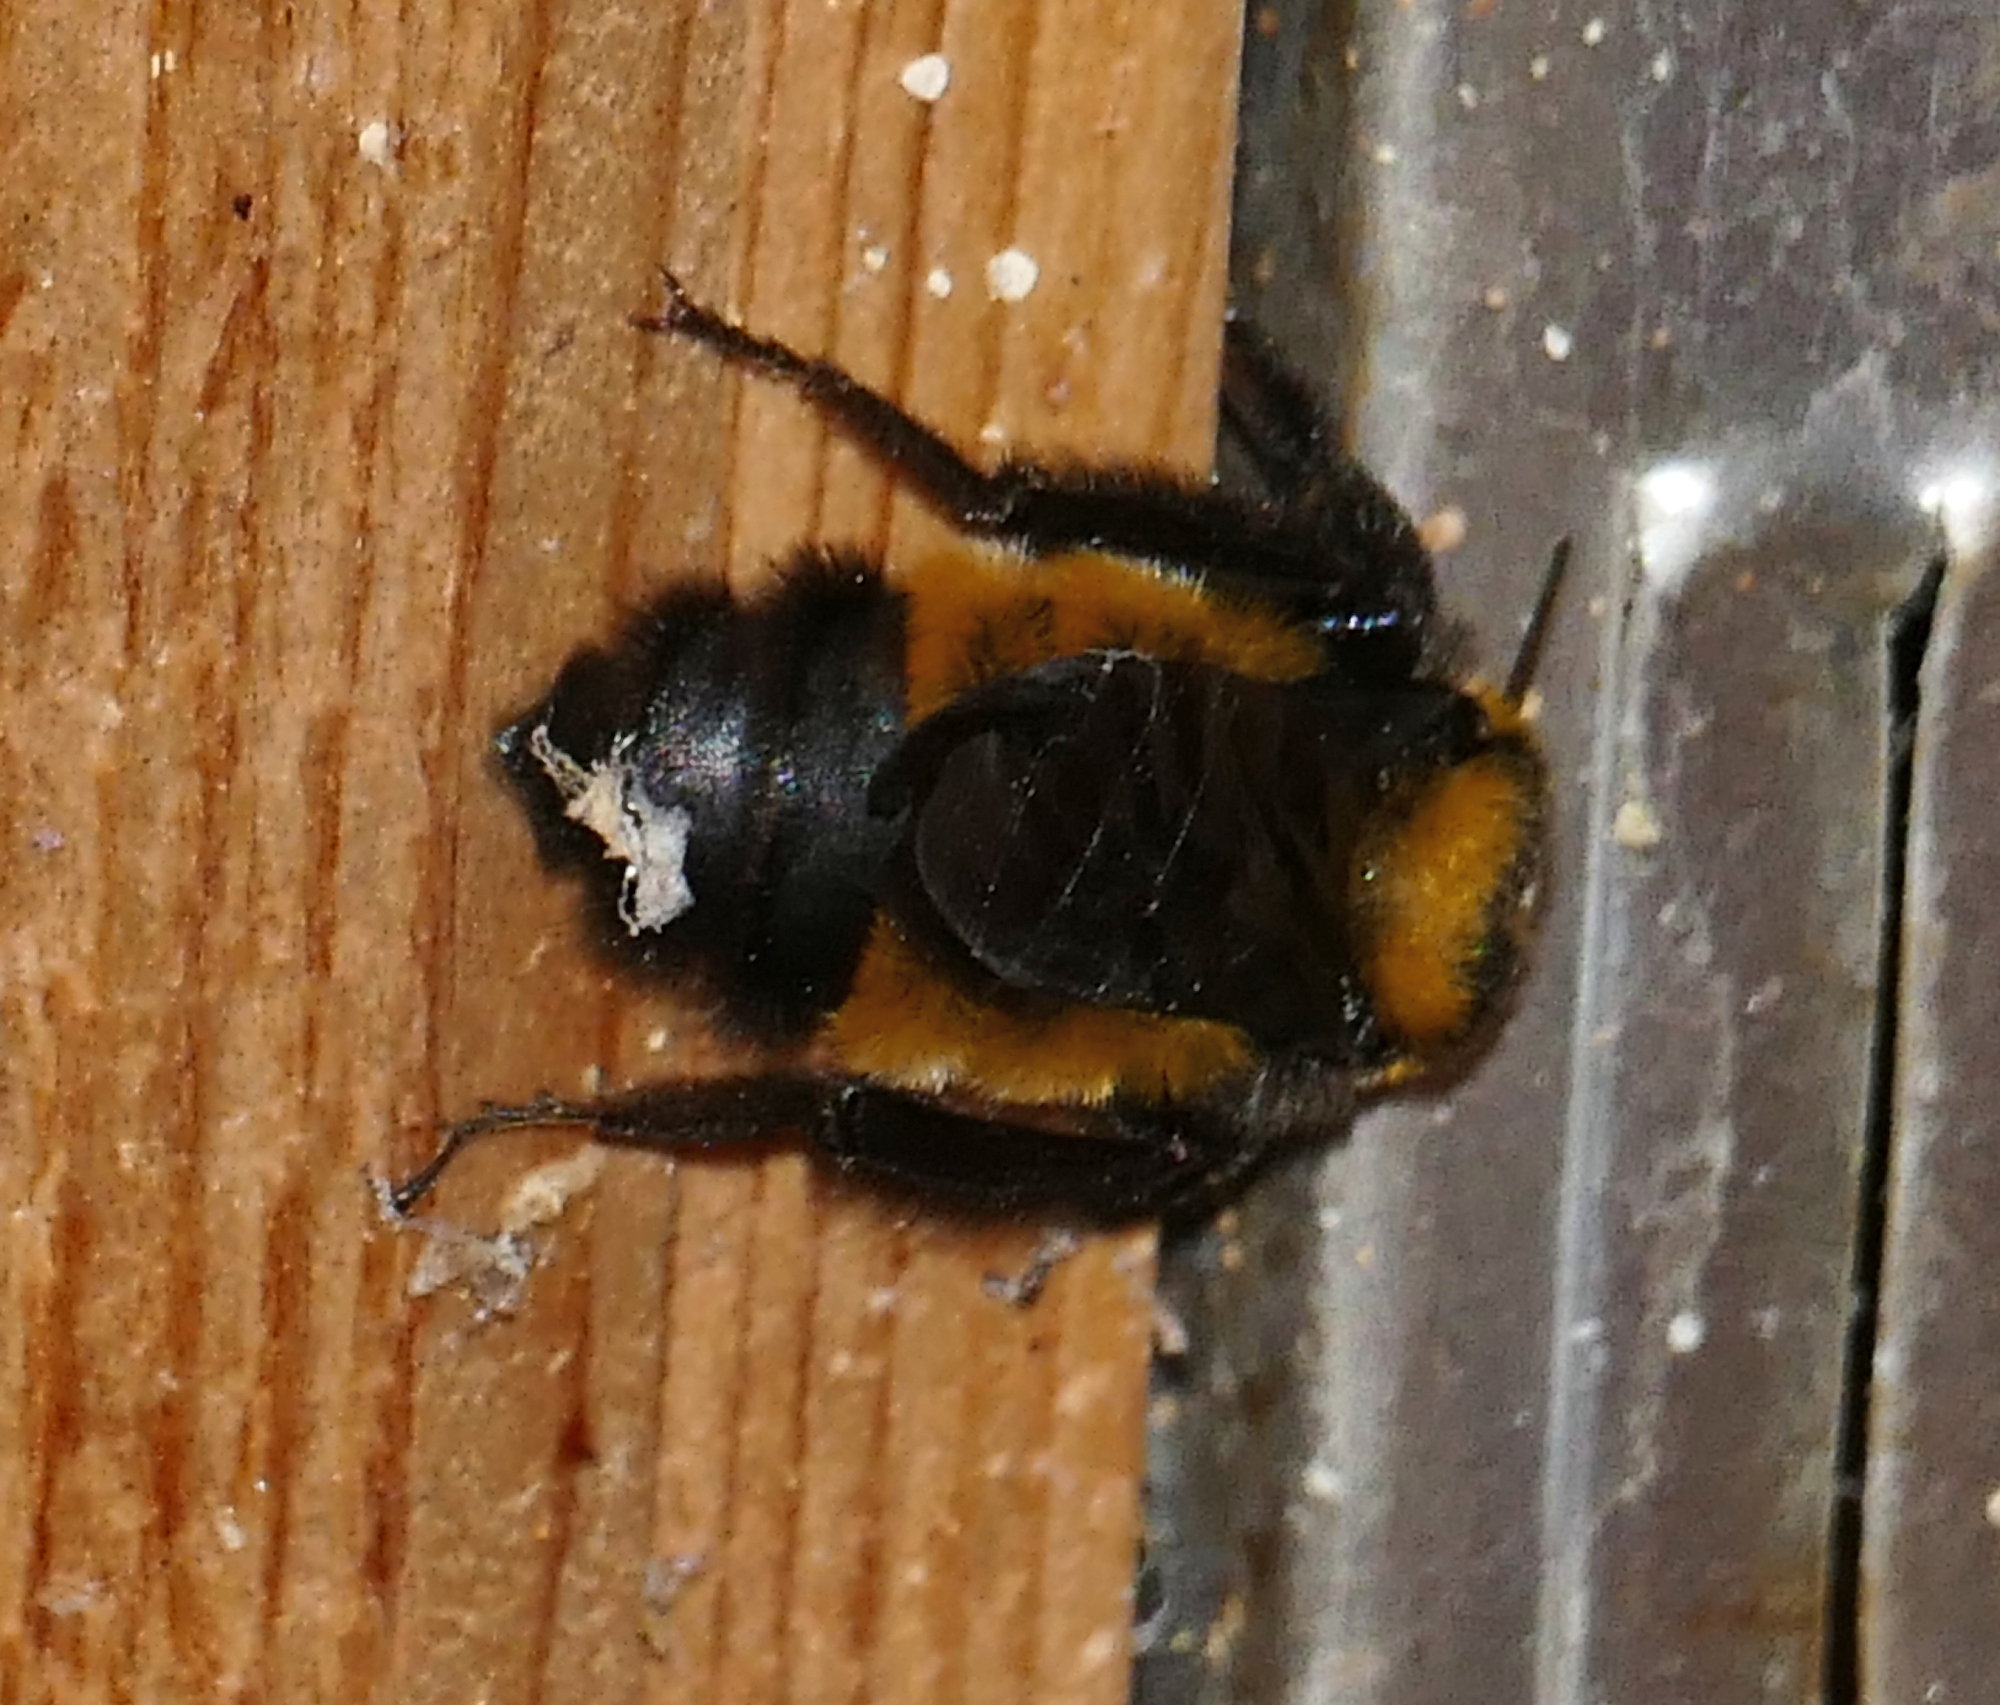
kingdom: Animalia
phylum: Arthropoda
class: Insecta
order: Hymenoptera
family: Apidae
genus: Bombus
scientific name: Bombus sonorus
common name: Sonoran bumble bee
